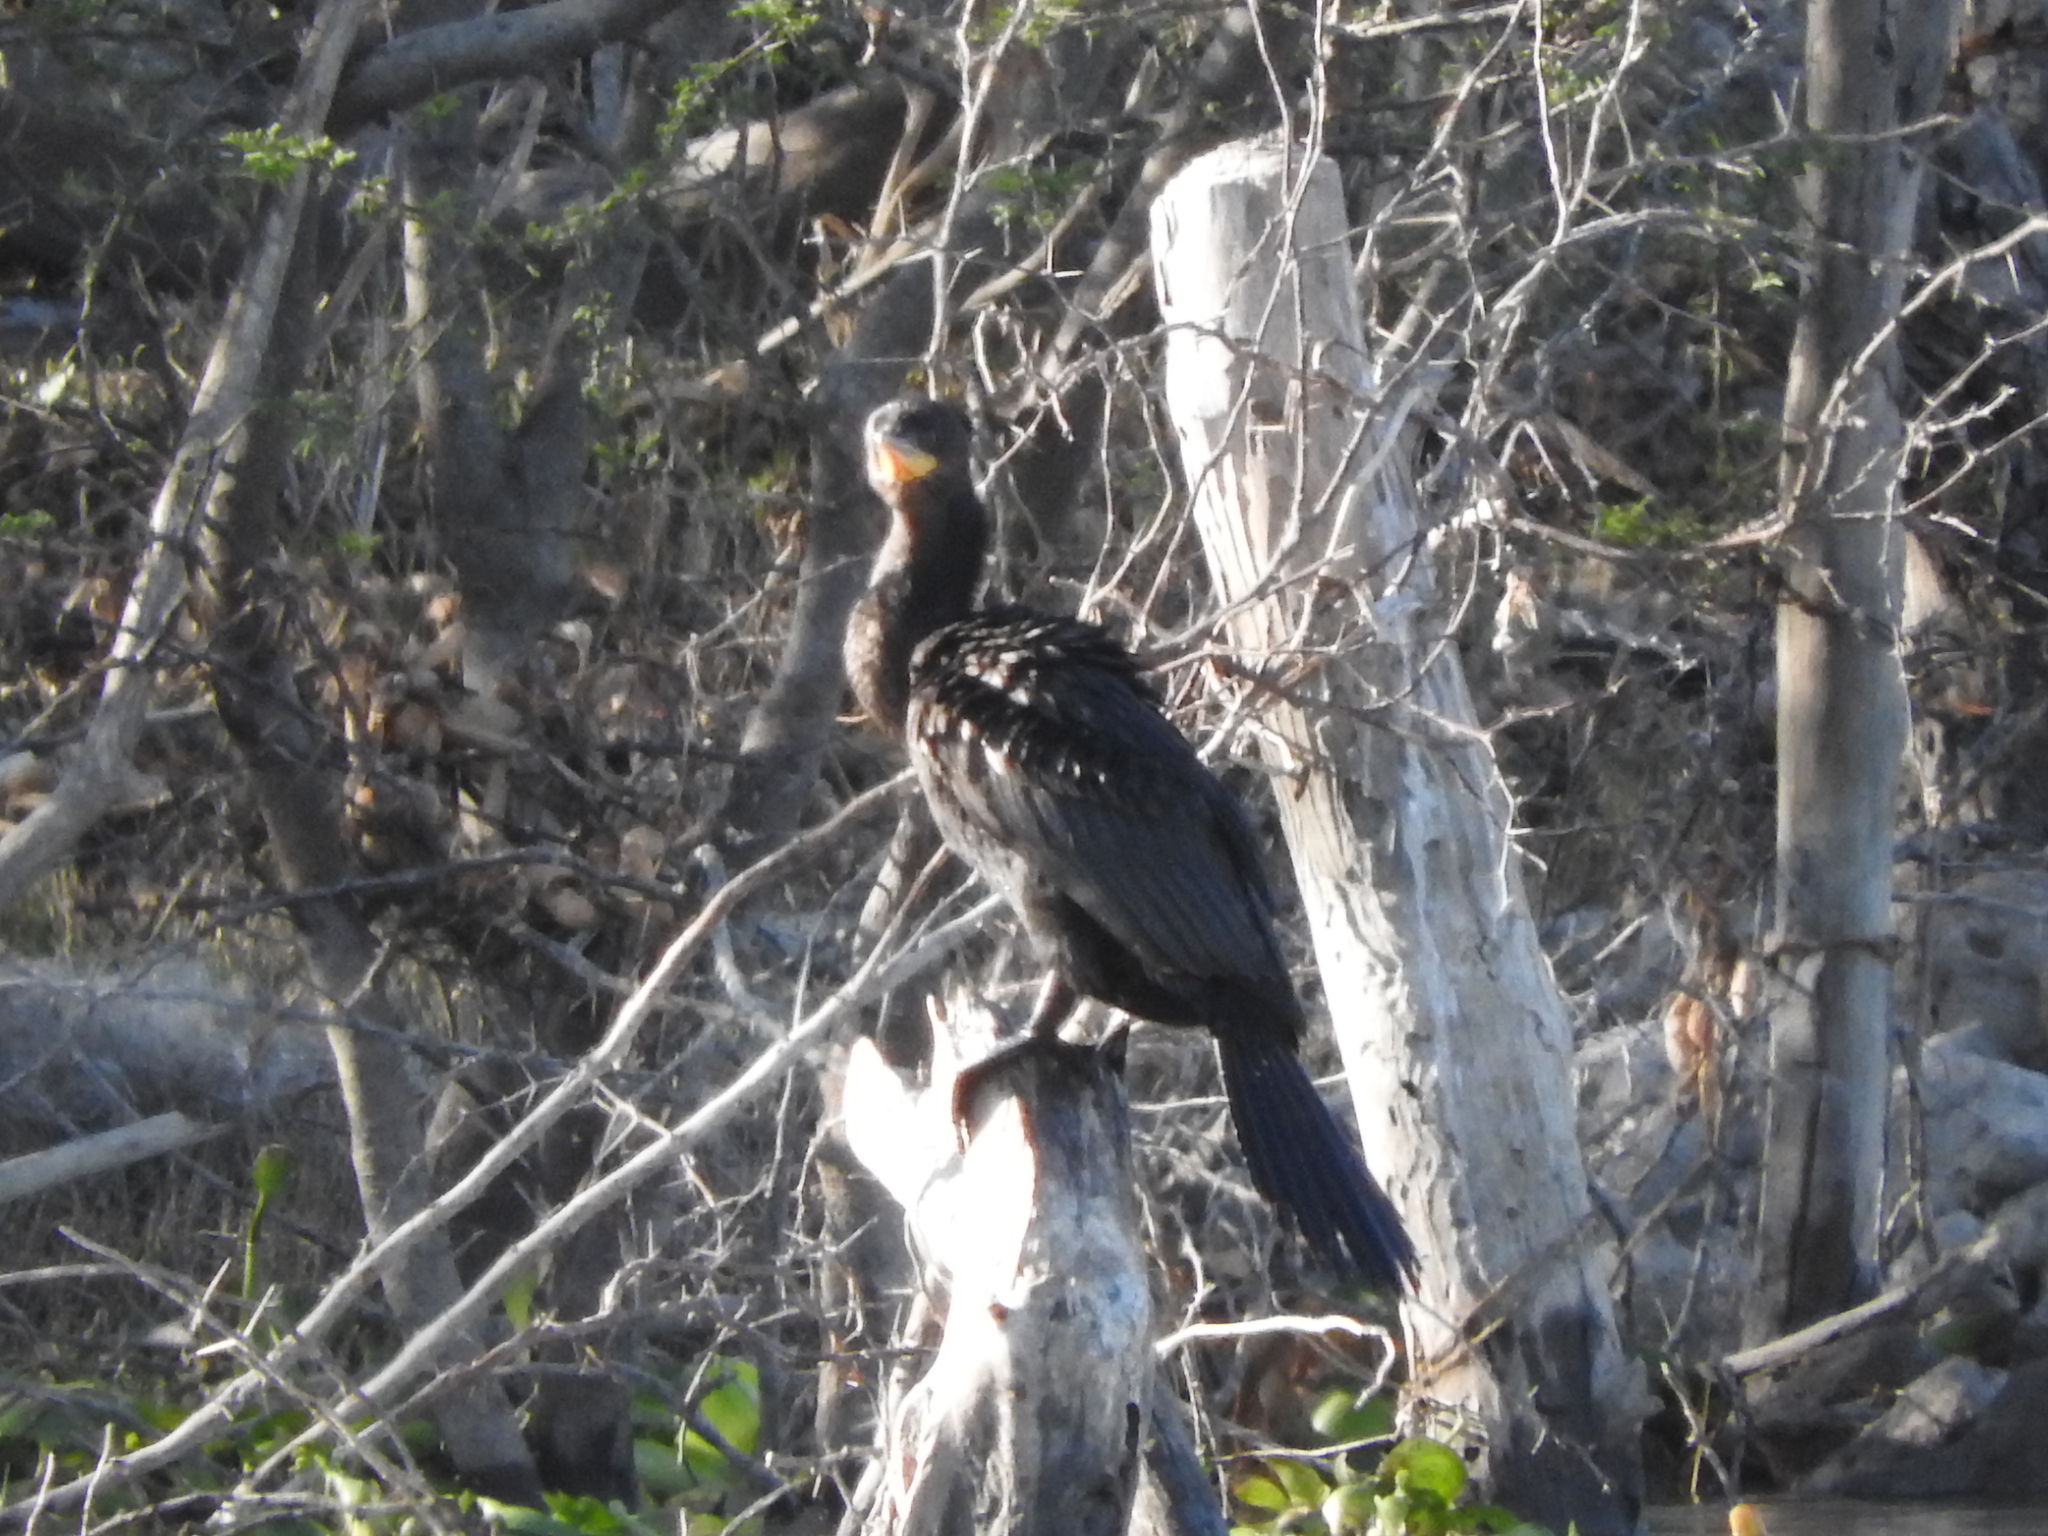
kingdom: Animalia
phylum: Chordata
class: Aves
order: Suliformes
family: Phalacrocoracidae
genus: Phalacrocorax
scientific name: Phalacrocorax brasilianus
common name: Neotropic cormorant
